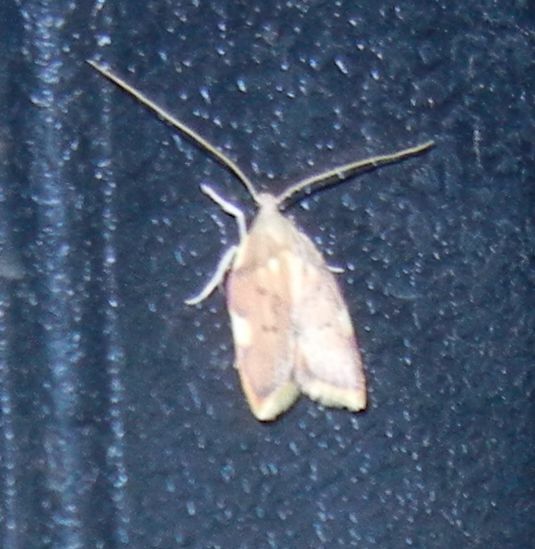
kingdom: Animalia
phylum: Arthropoda
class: Insecta
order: Lepidoptera
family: Peleopodidae
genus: Carcina
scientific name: Carcina quercana
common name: Moth
